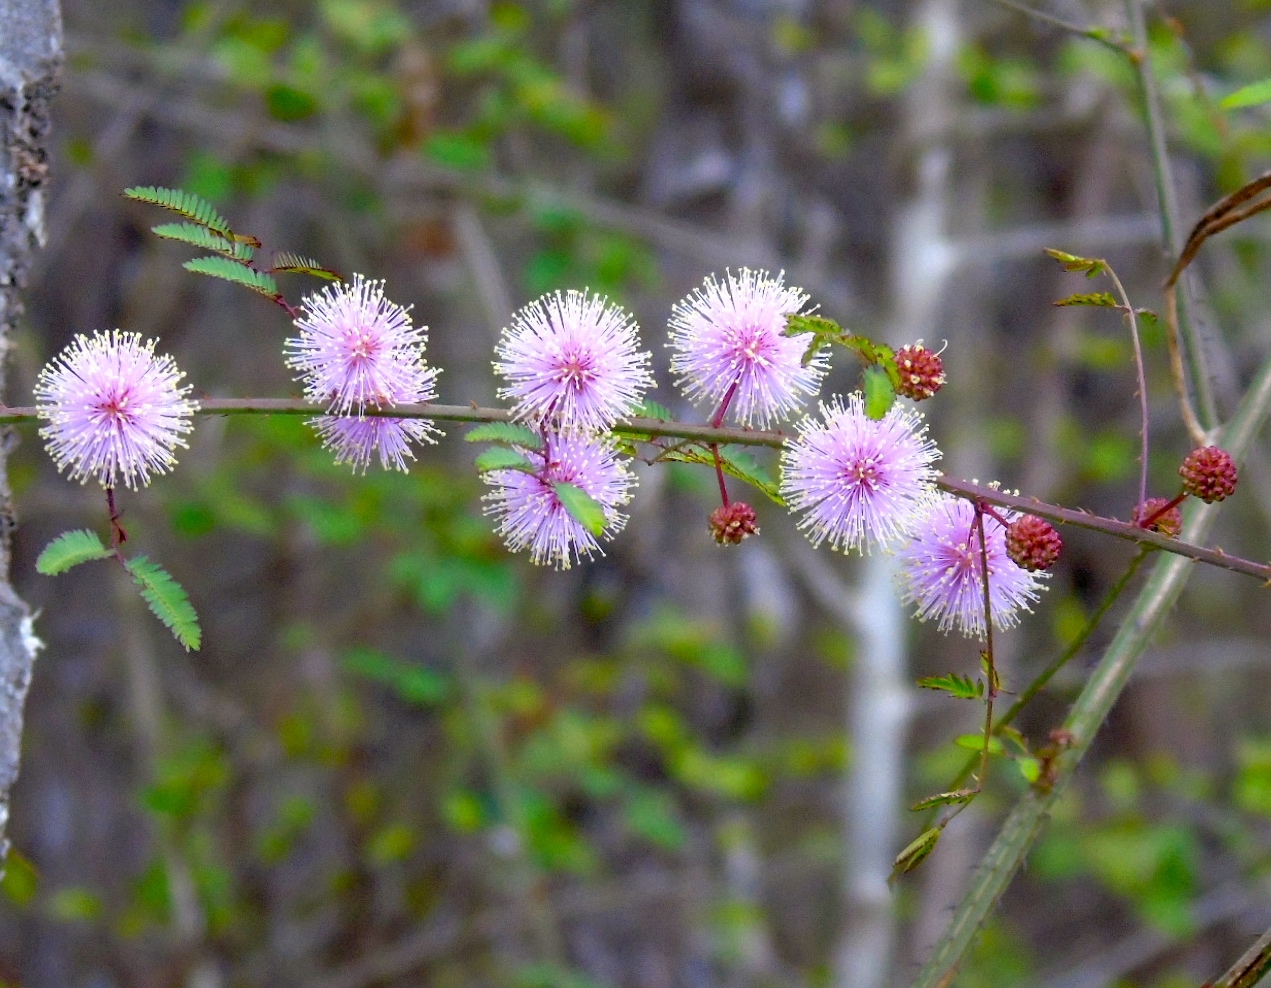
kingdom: Plantae
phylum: Tracheophyta
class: Magnoliopsida
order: Fabales
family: Fabaceae
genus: Mimosa
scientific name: Mimosa quadrivalvis
